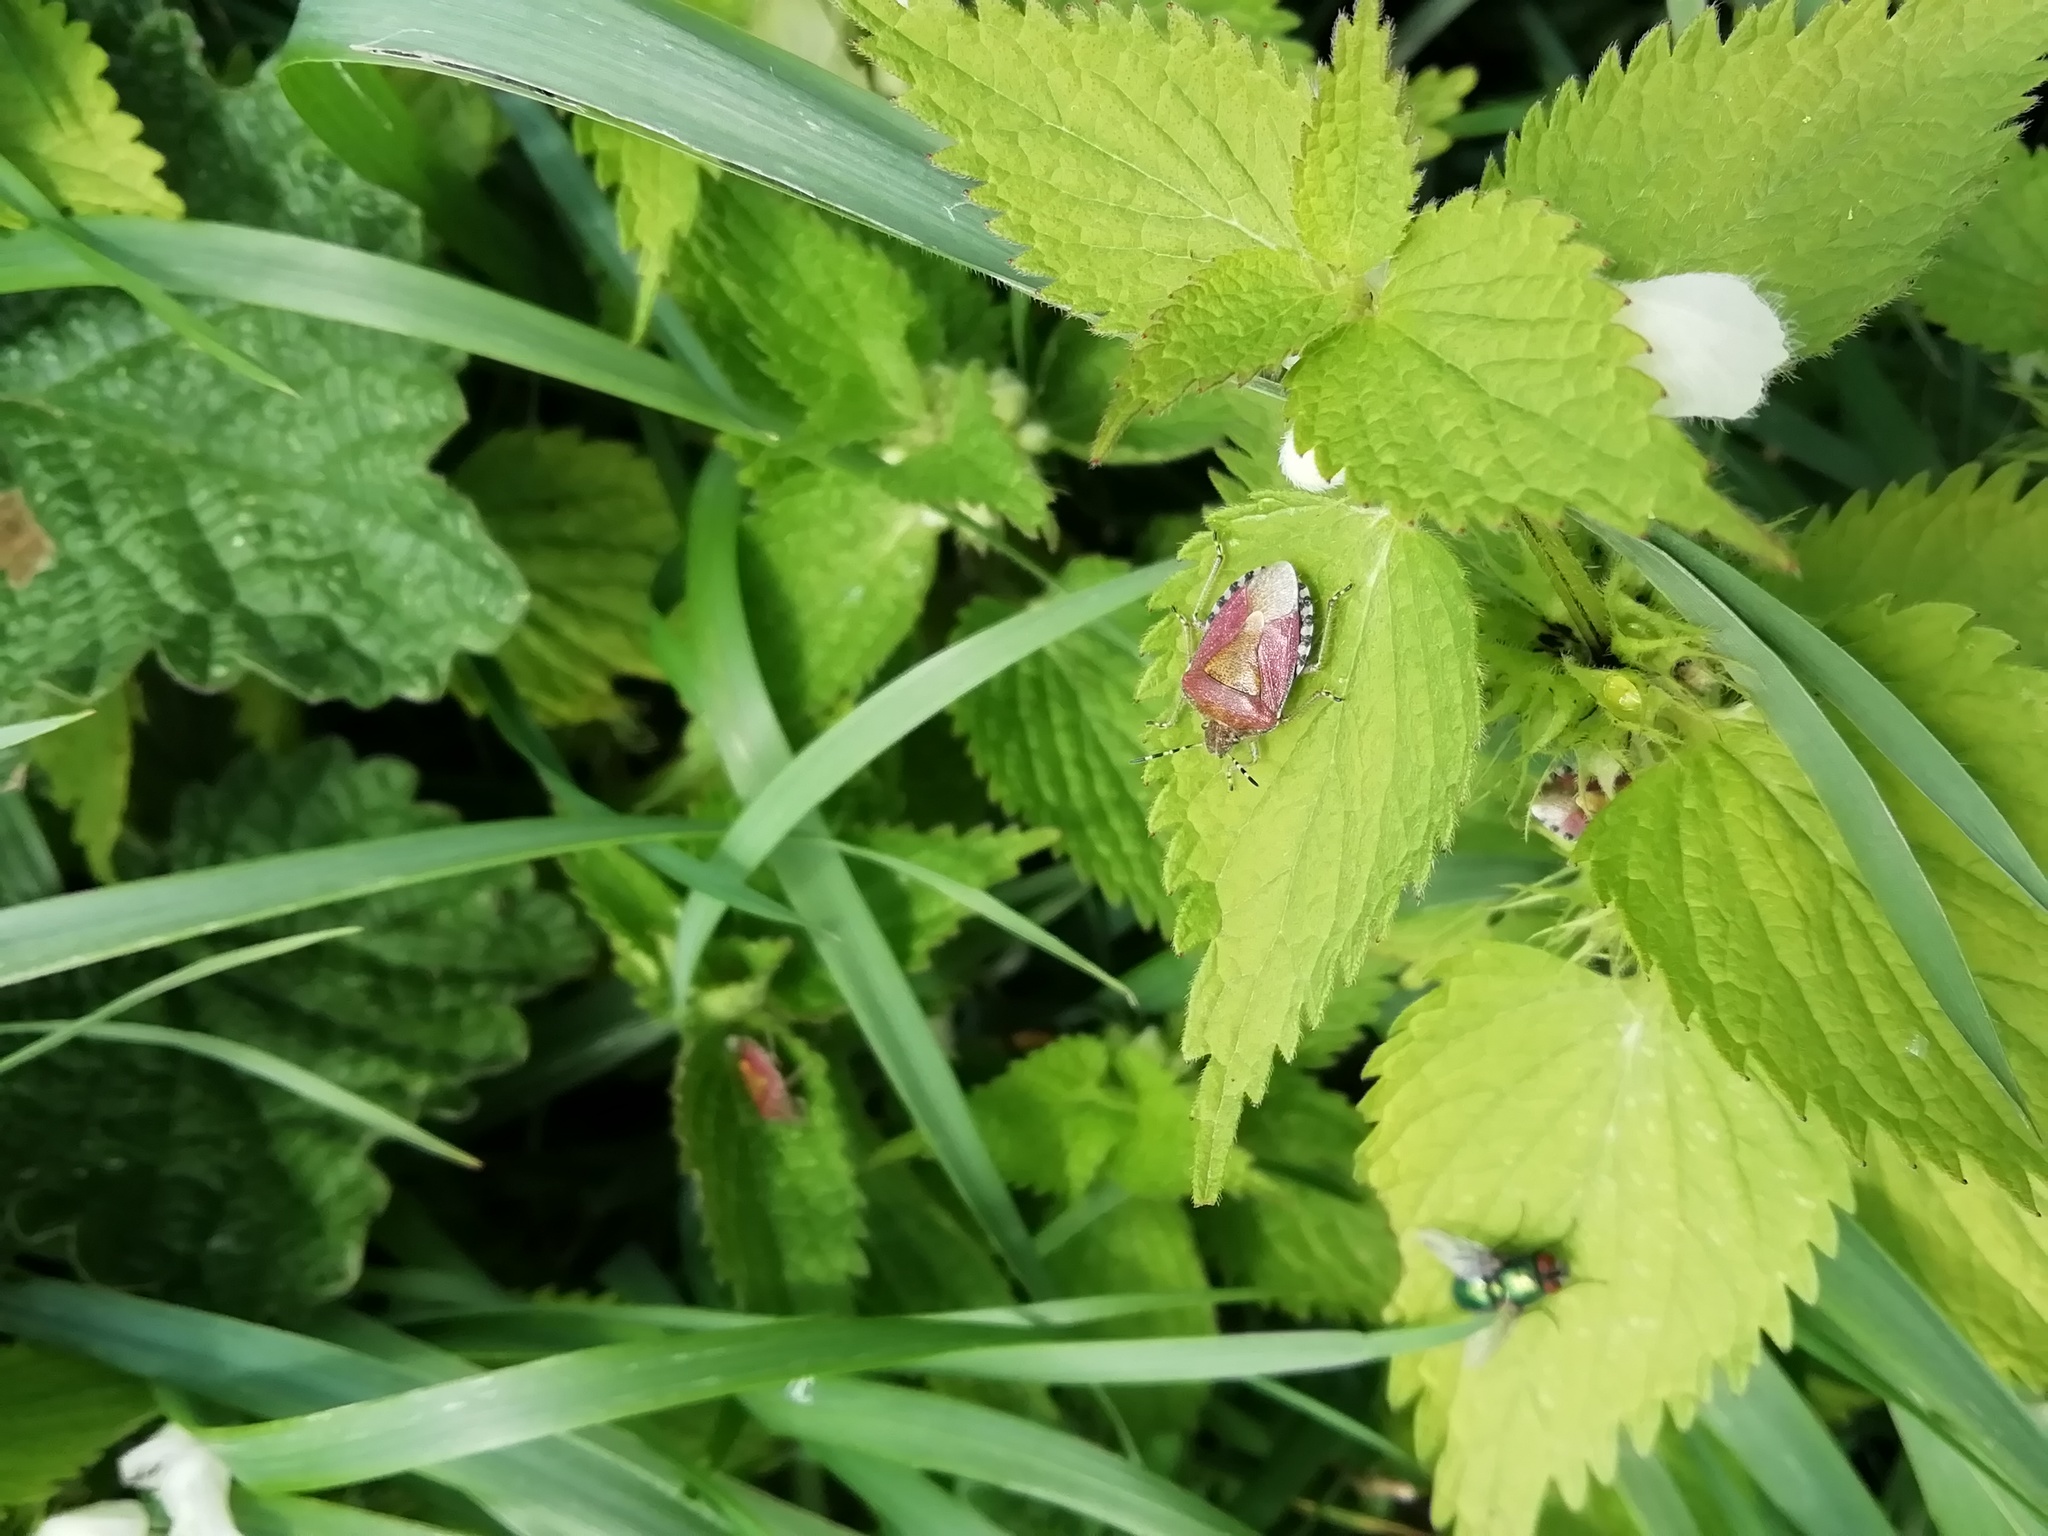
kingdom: Animalia
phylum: Arthropoda
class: Insecta
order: Hemiptera
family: Pentatomidae
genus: Dolycoris
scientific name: Dolycoris baccarum
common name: Sloe bug
